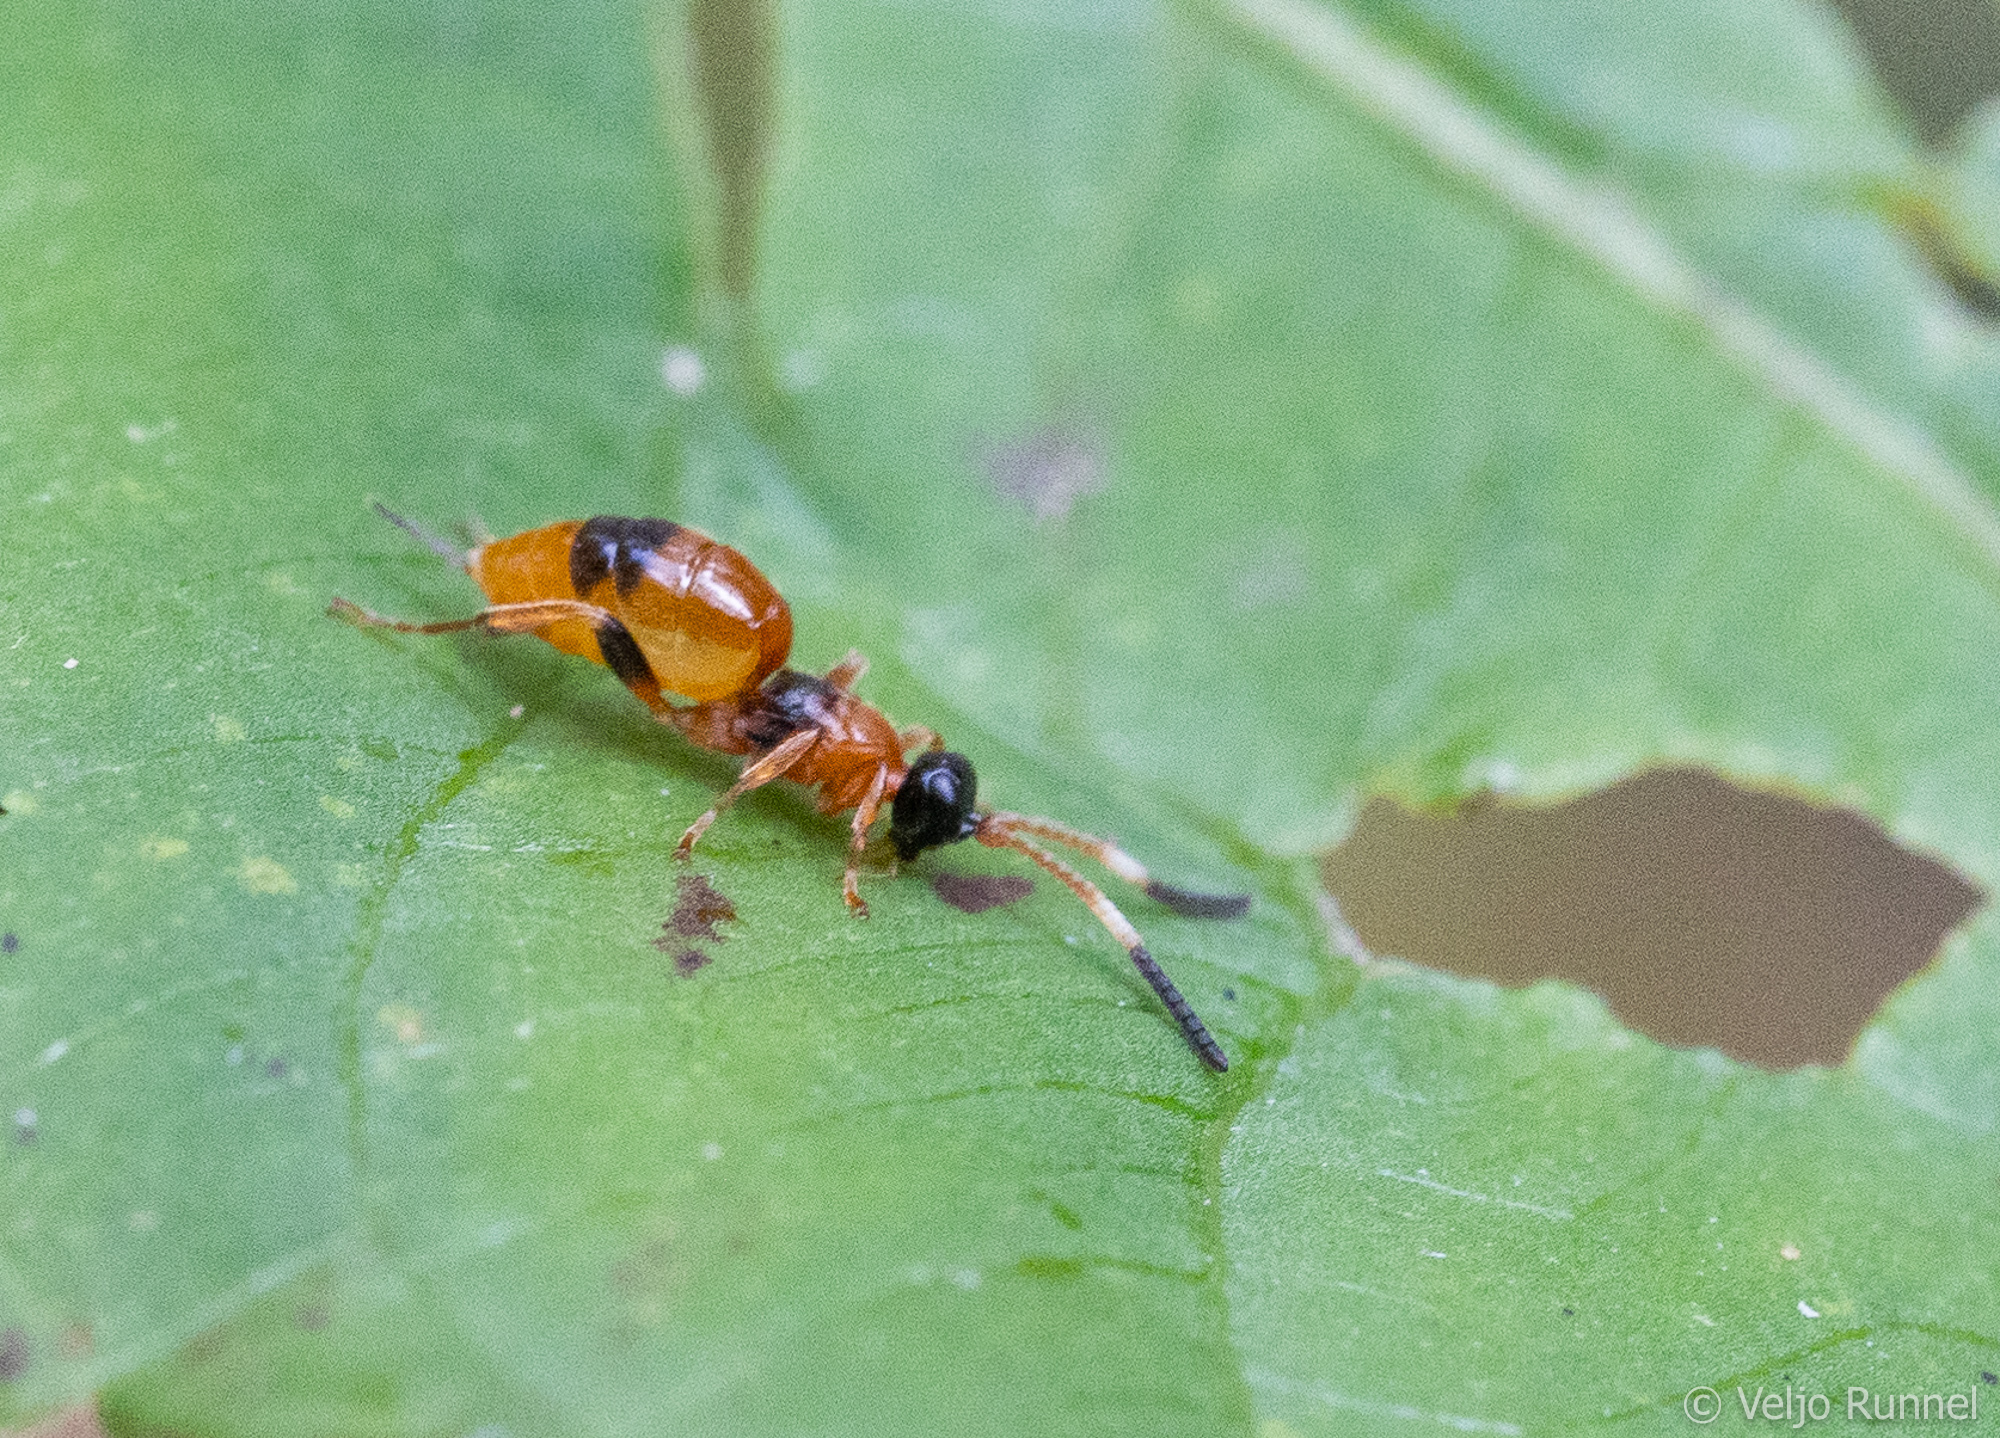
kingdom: Animalia
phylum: Arthropoda
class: Insecta
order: Hymenoptera
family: Ichneumonidae
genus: Aptesis
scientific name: Aptesis nigrocincta
